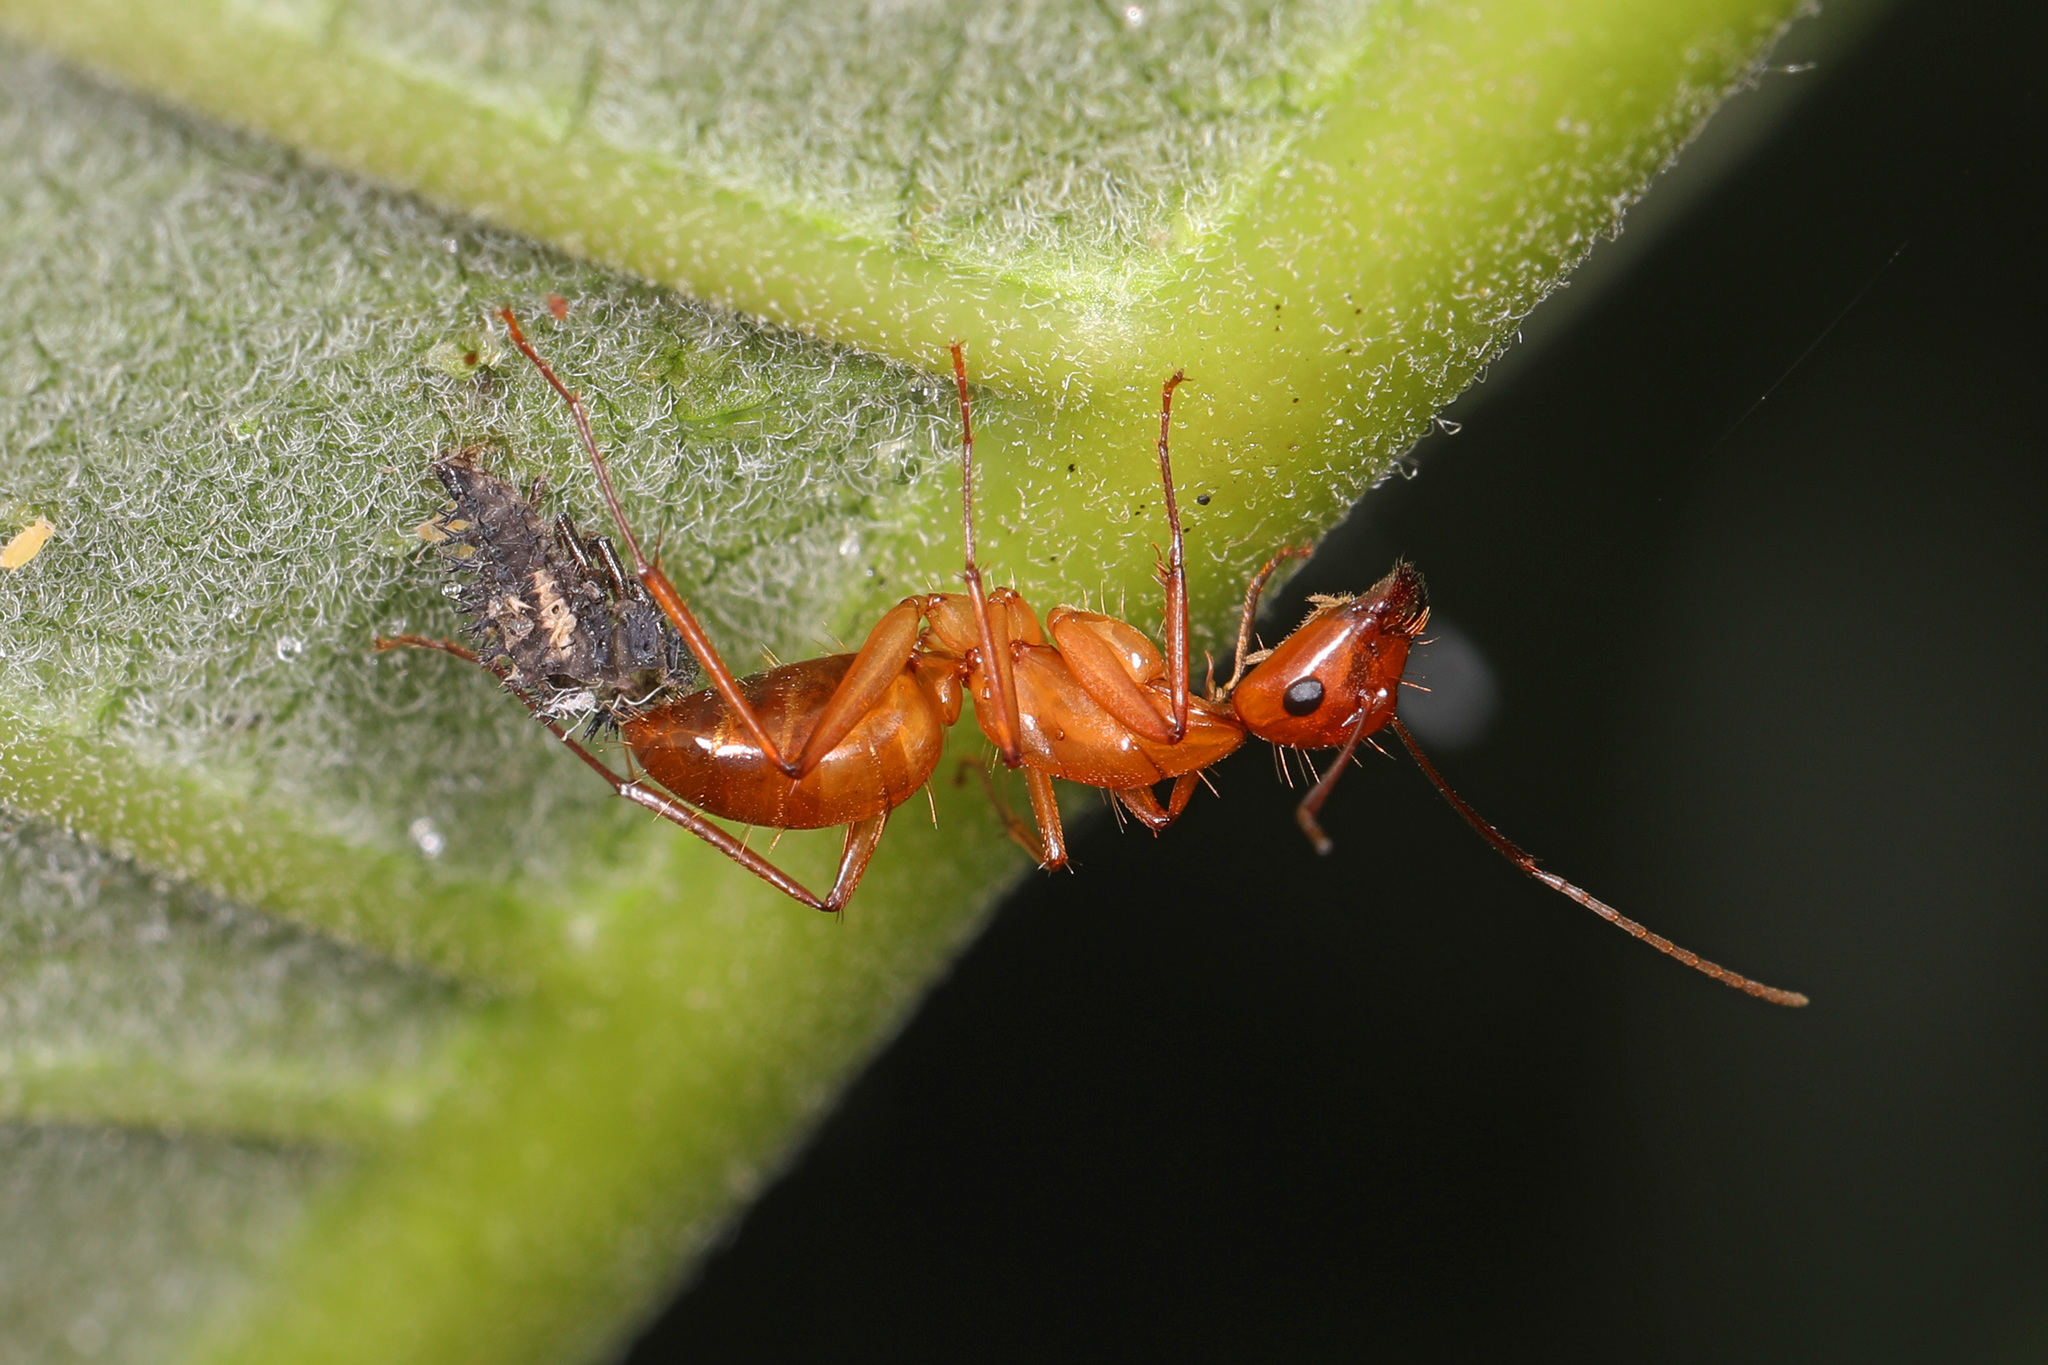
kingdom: Animalia
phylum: Arthropoda
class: Insecta
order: Hymenoptera
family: Formicidae
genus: Camponotus
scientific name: Camponotus castaneus
